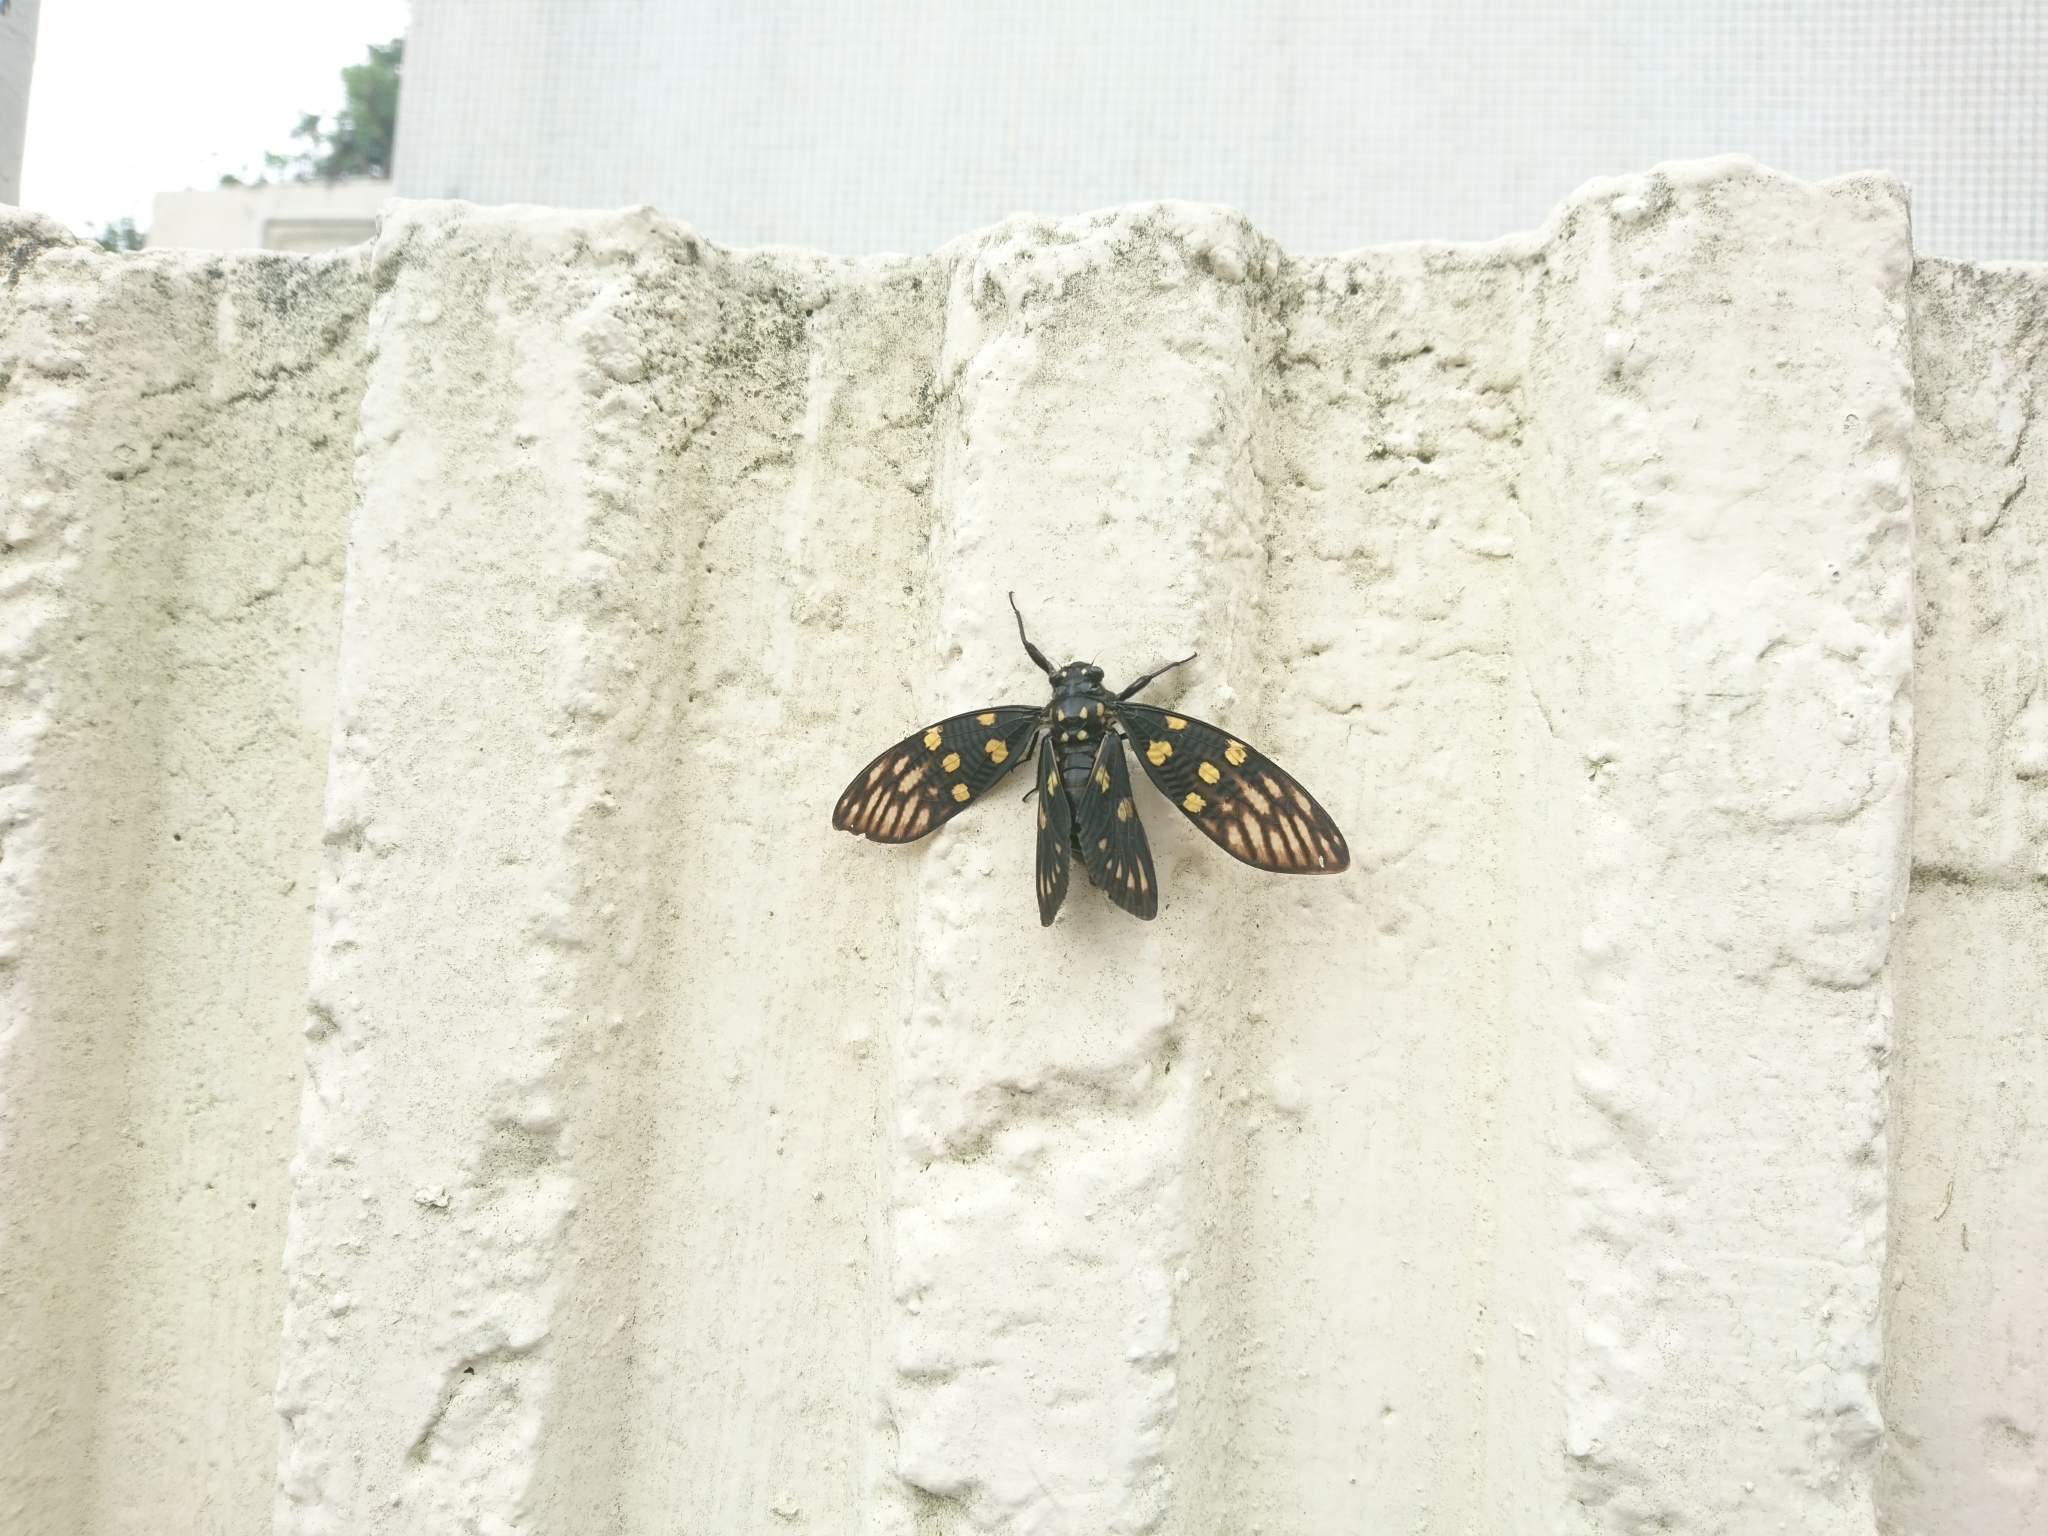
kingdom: Animalia
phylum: Arthropoda
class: Insecta
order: Hemiptera
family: Cicadidae
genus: Gaeana
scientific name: Gaeana maculata
